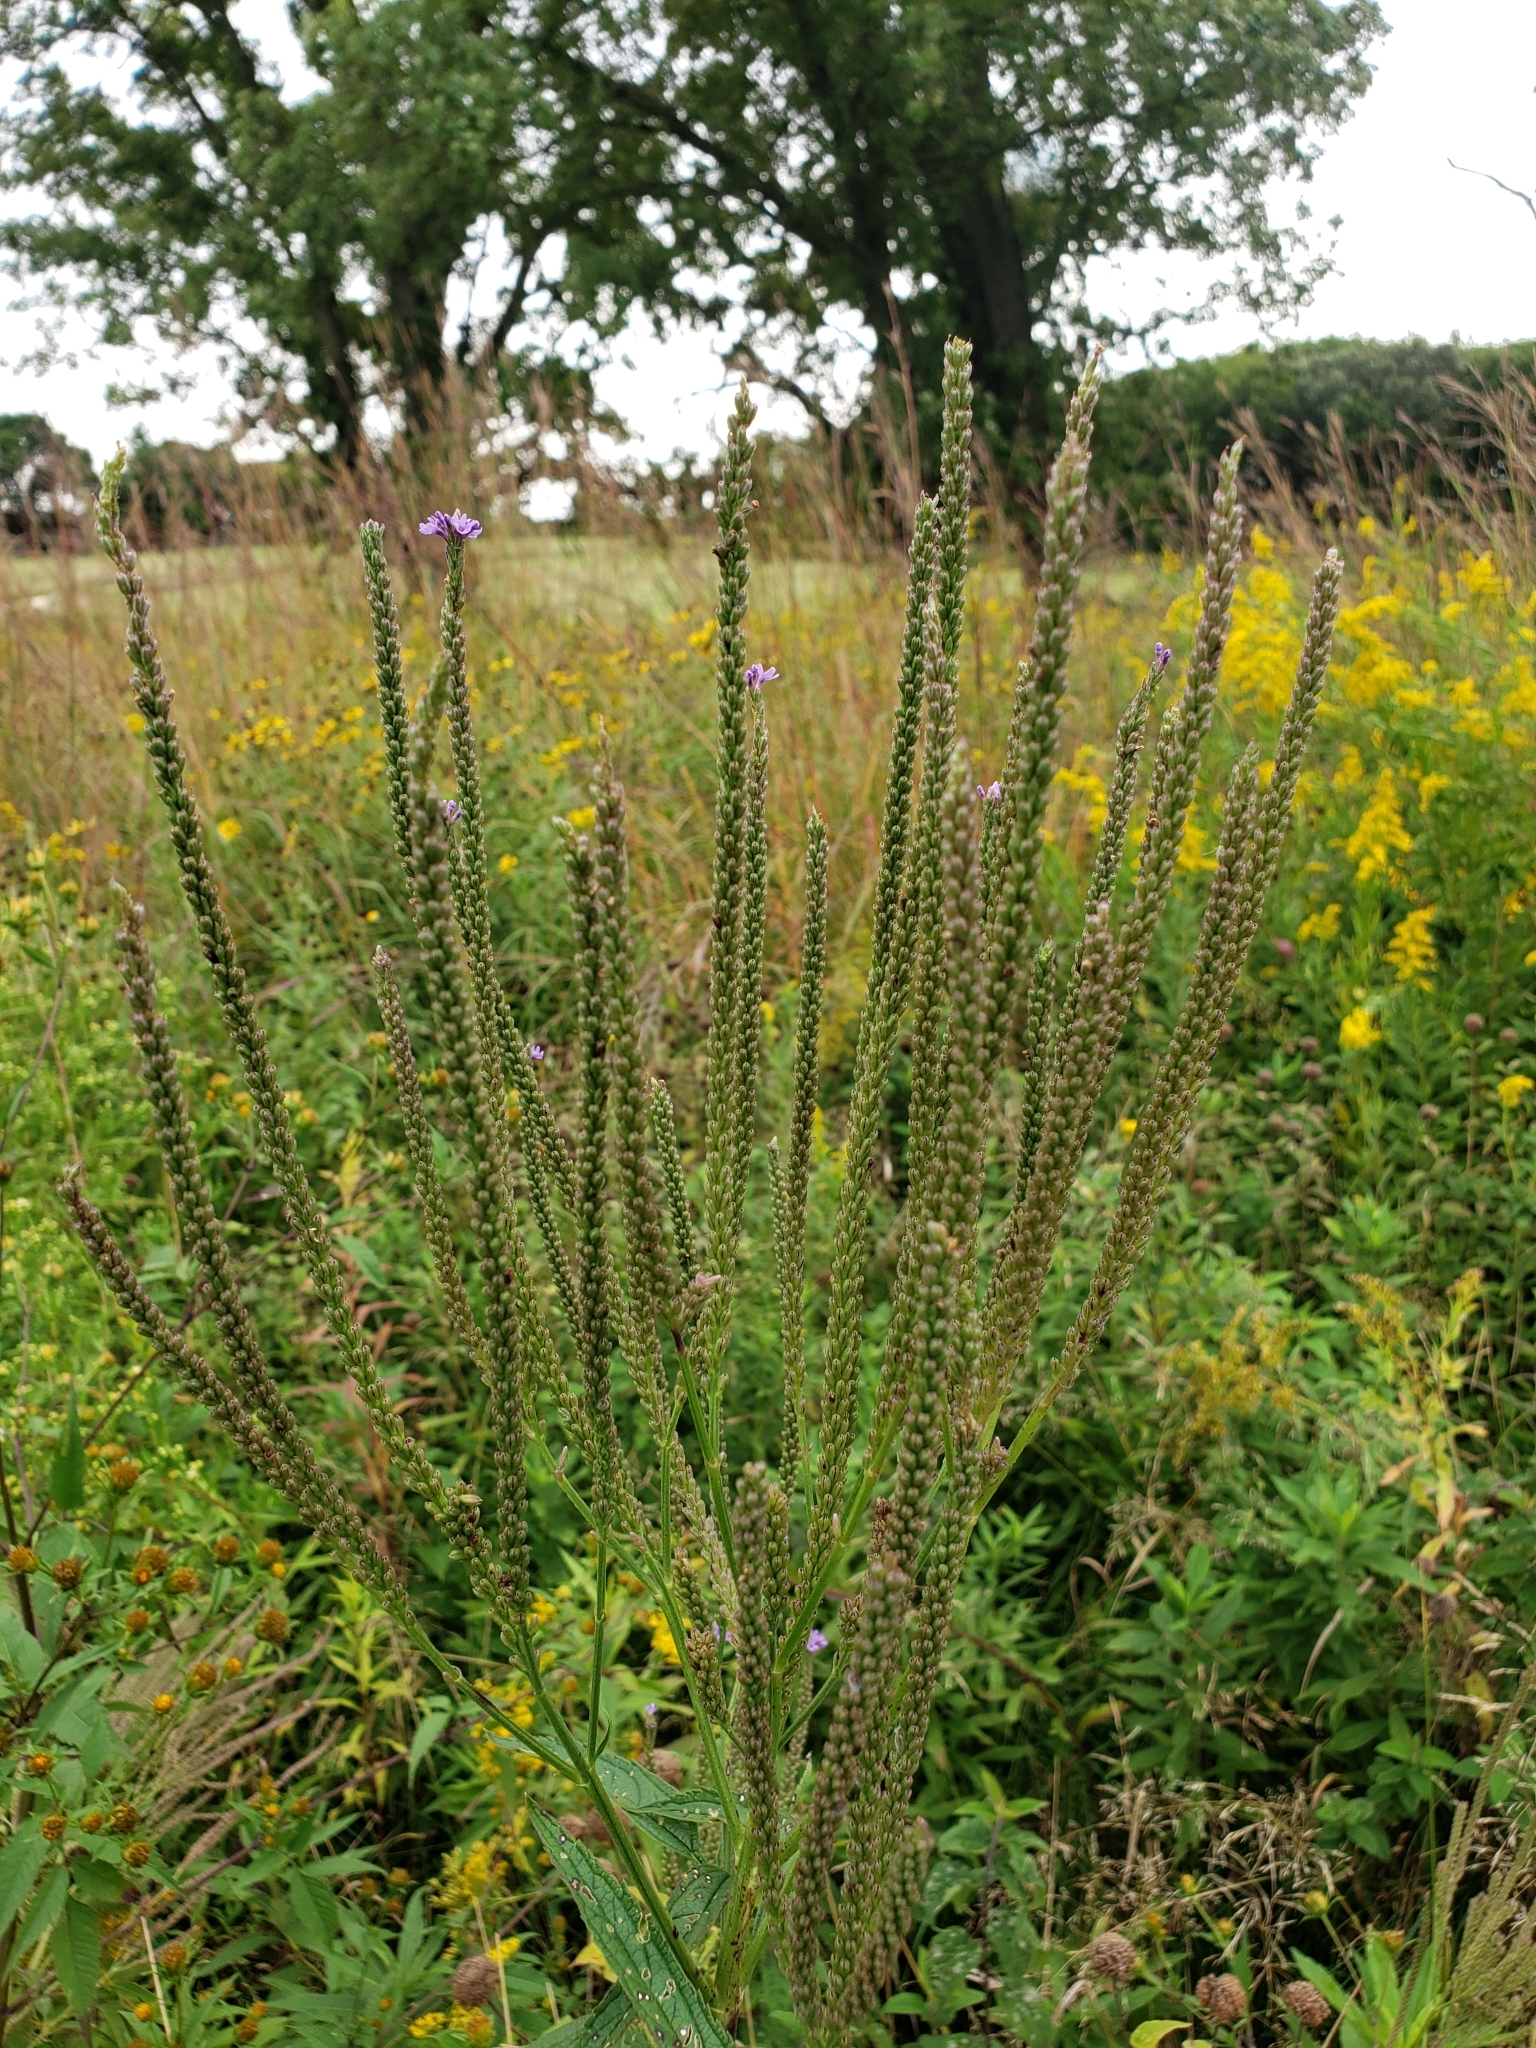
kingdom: Plantae
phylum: Tracheophyta
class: Magnoliopsida
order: Lamiales
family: Verbenaceae
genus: Verbena
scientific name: Verbena hastata
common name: American blue vervain
